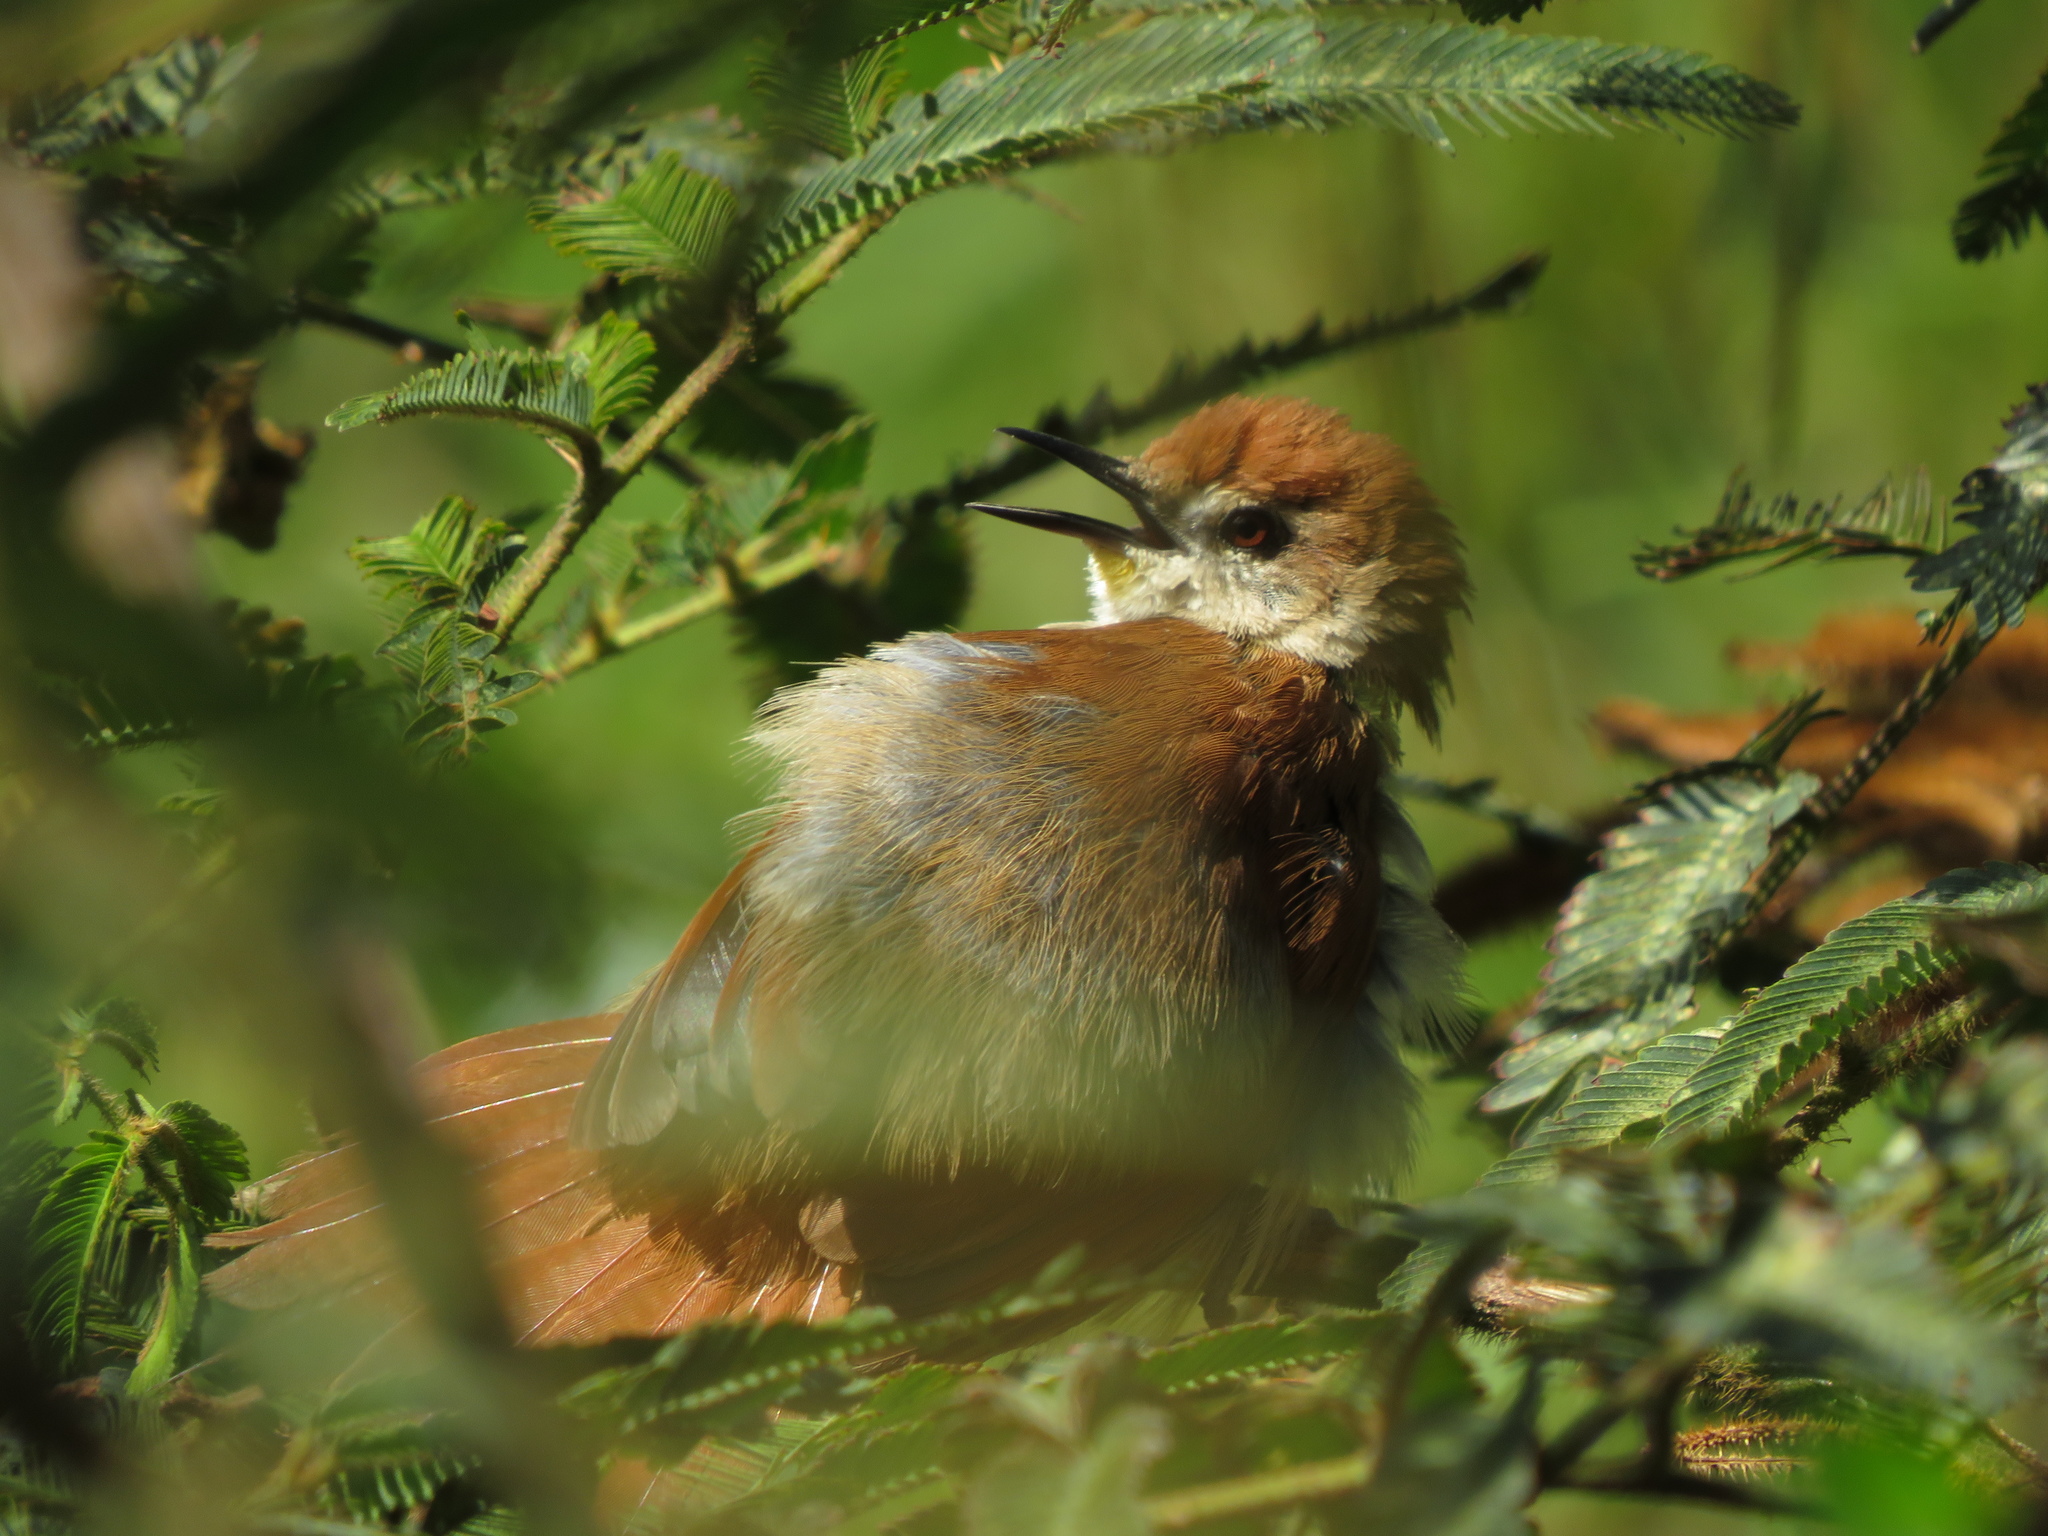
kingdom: Animalia
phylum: Chordata
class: Aves
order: Passeriformes
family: Furnariidae
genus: Certhiaxis
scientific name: Certhiaxis cinnamomeus
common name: Yellow-chinned spinetail
